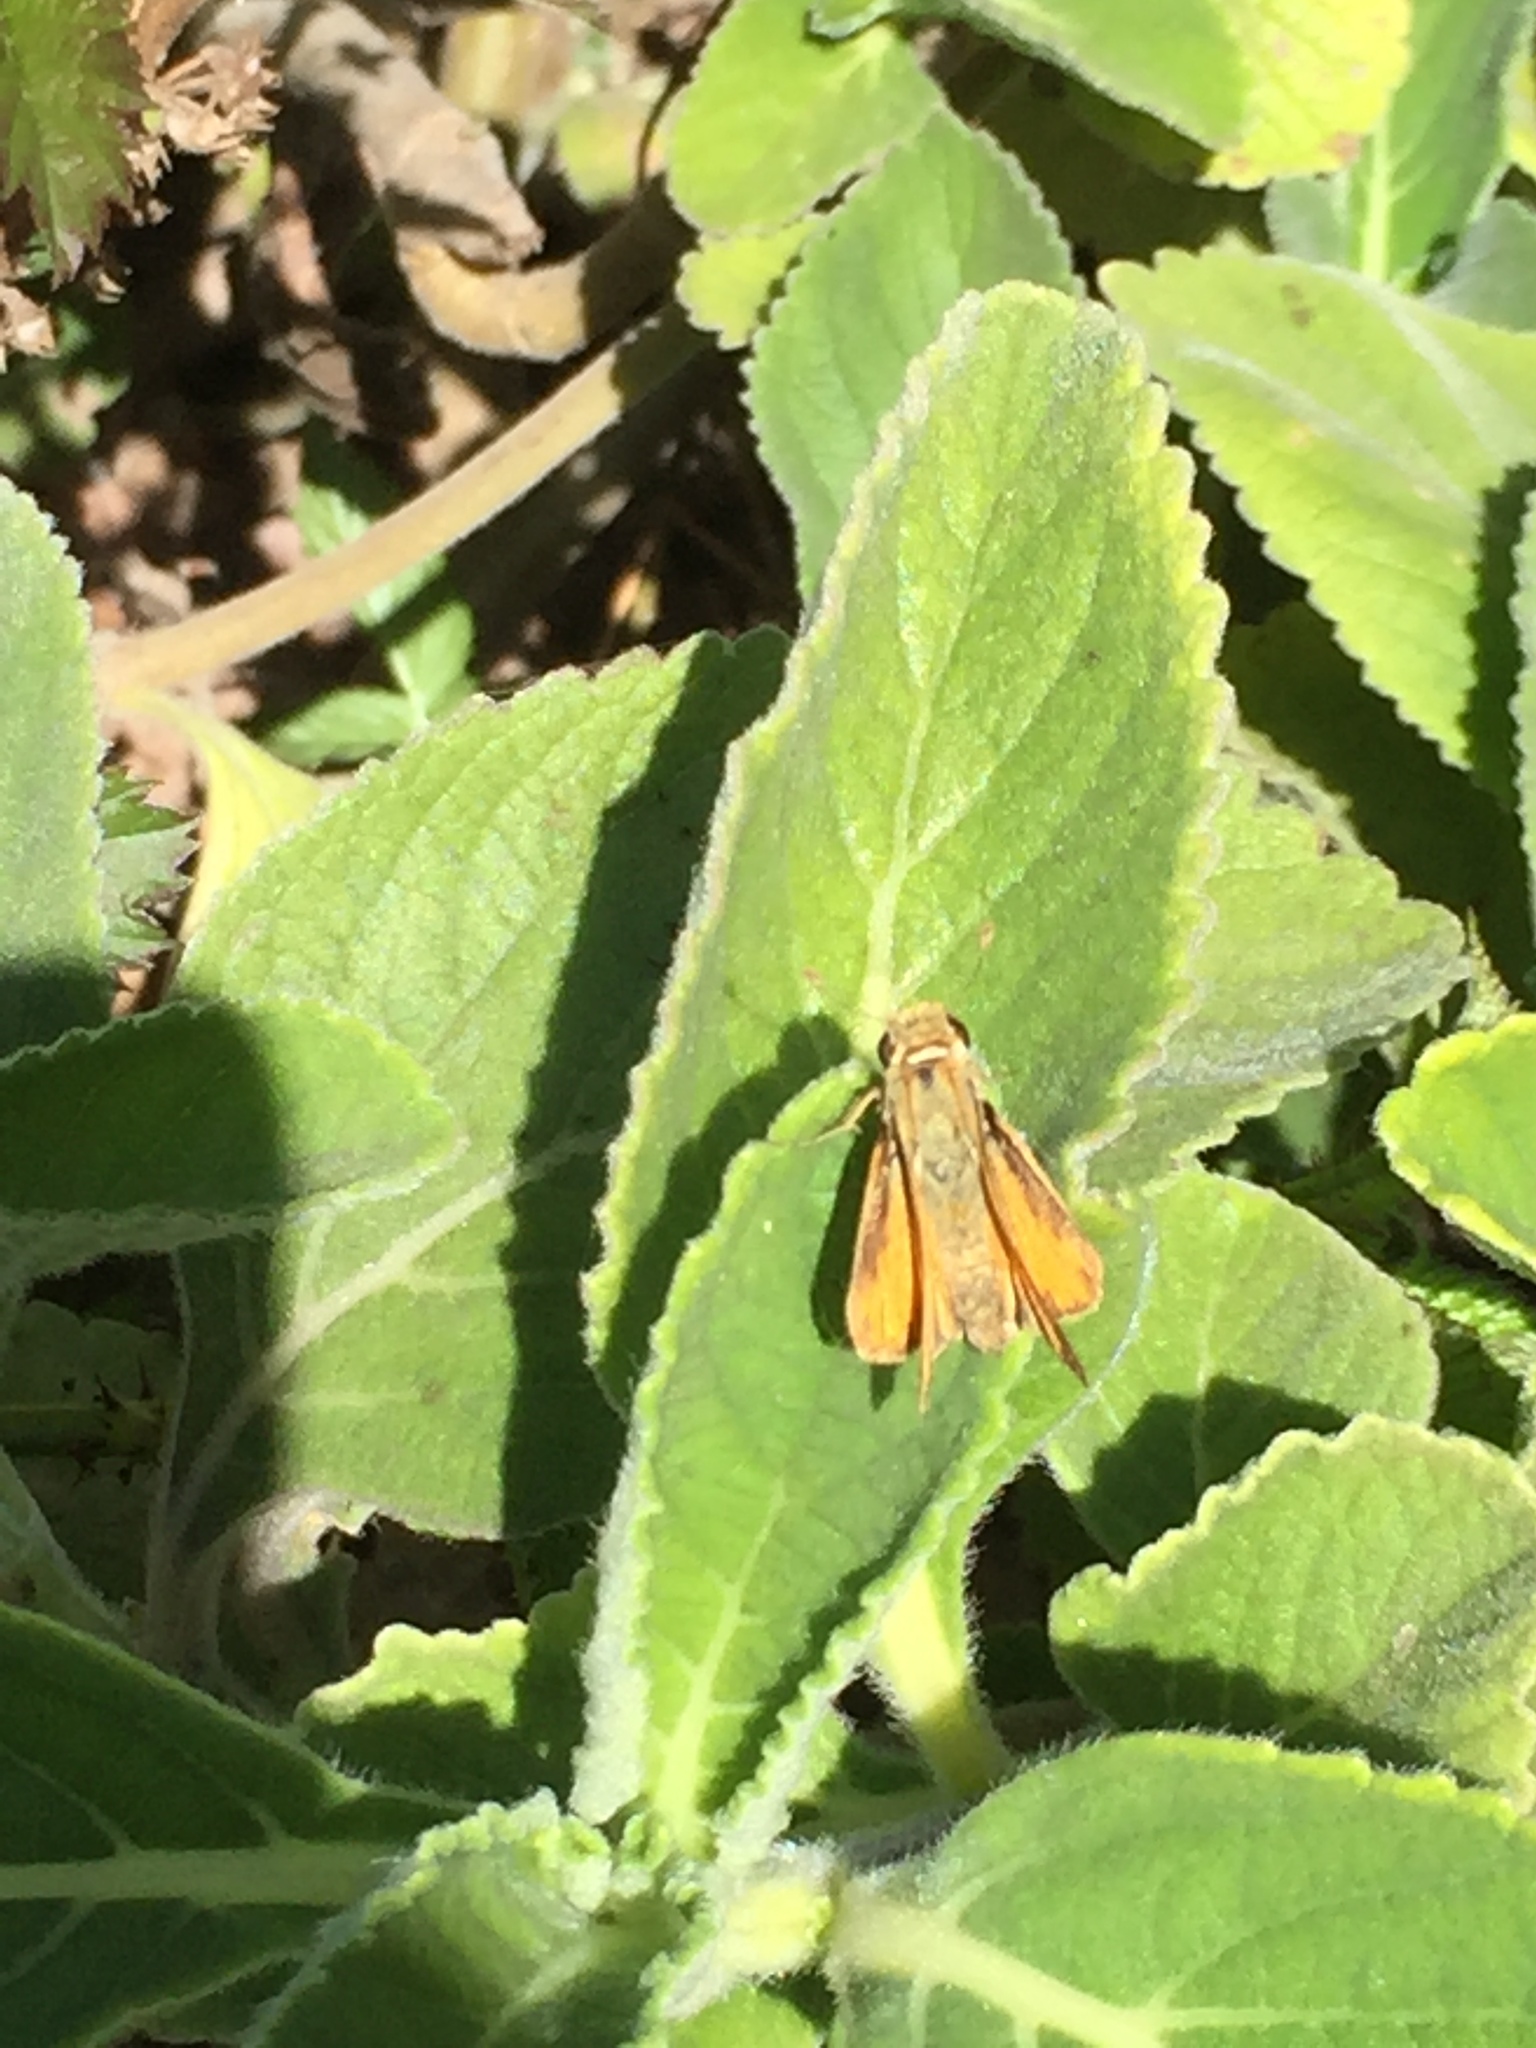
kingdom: Animalia
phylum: Arthropoda
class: Insecta
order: Lepidoptera
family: Hesperiidae
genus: Hylephila
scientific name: Hylephila phyleus
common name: Fiery skipper
